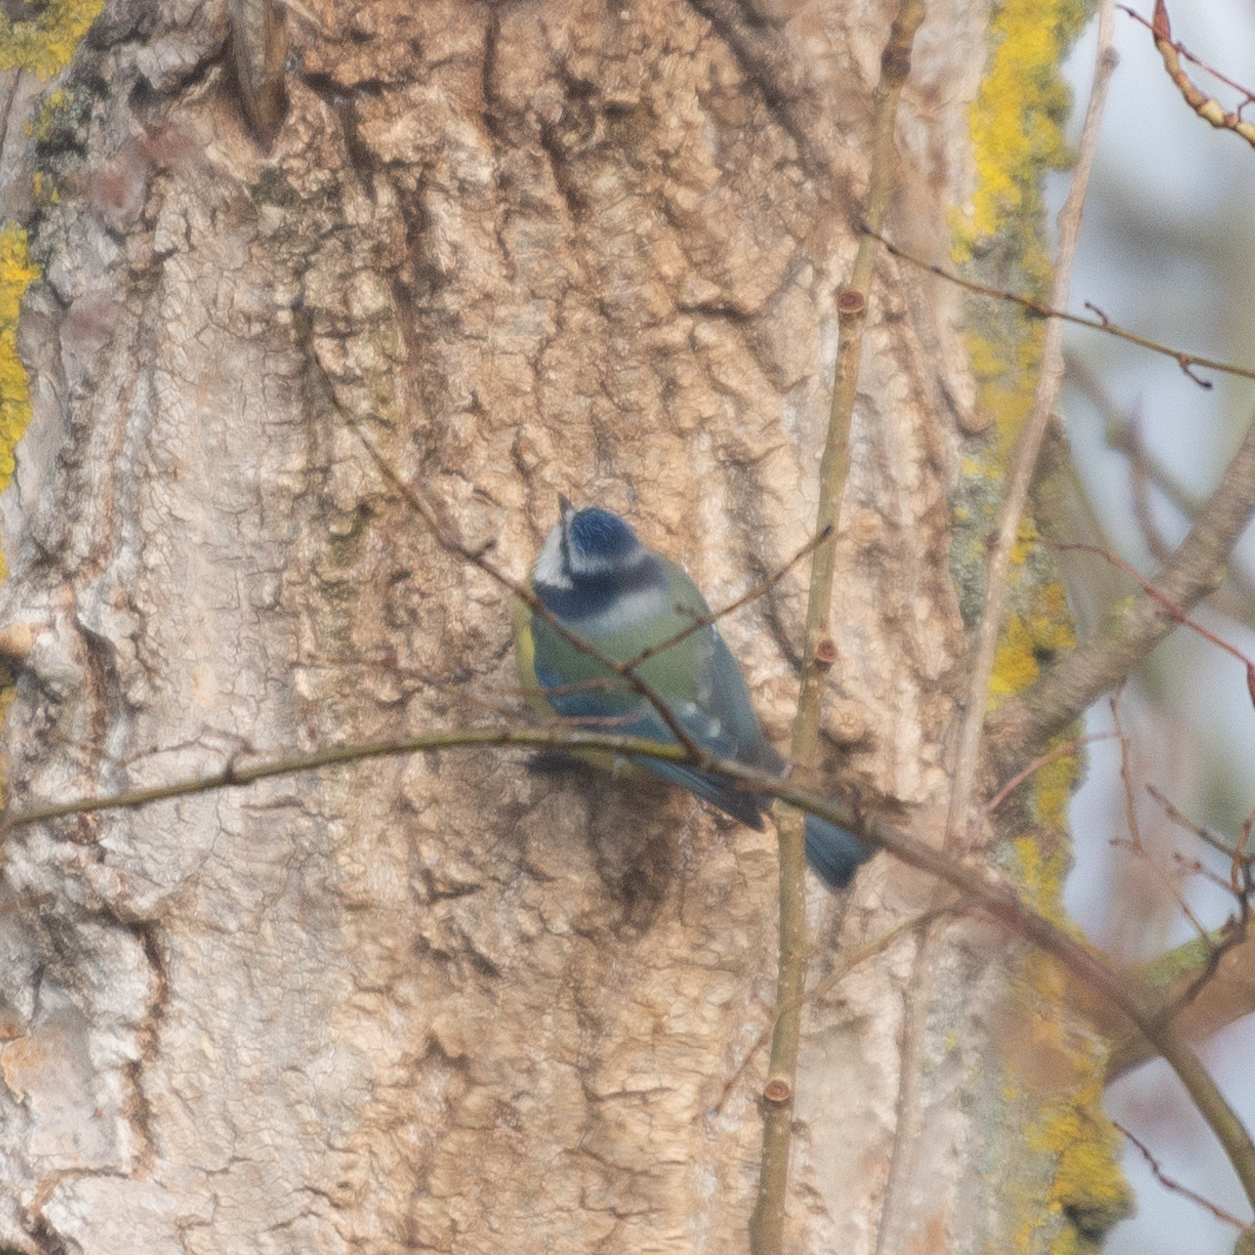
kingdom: Animalia
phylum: Chordata
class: Aves
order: Passeriformes
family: Paridae
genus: Cyanistes
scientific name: Cyanistes caeruleus
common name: Eurasian blue tit
